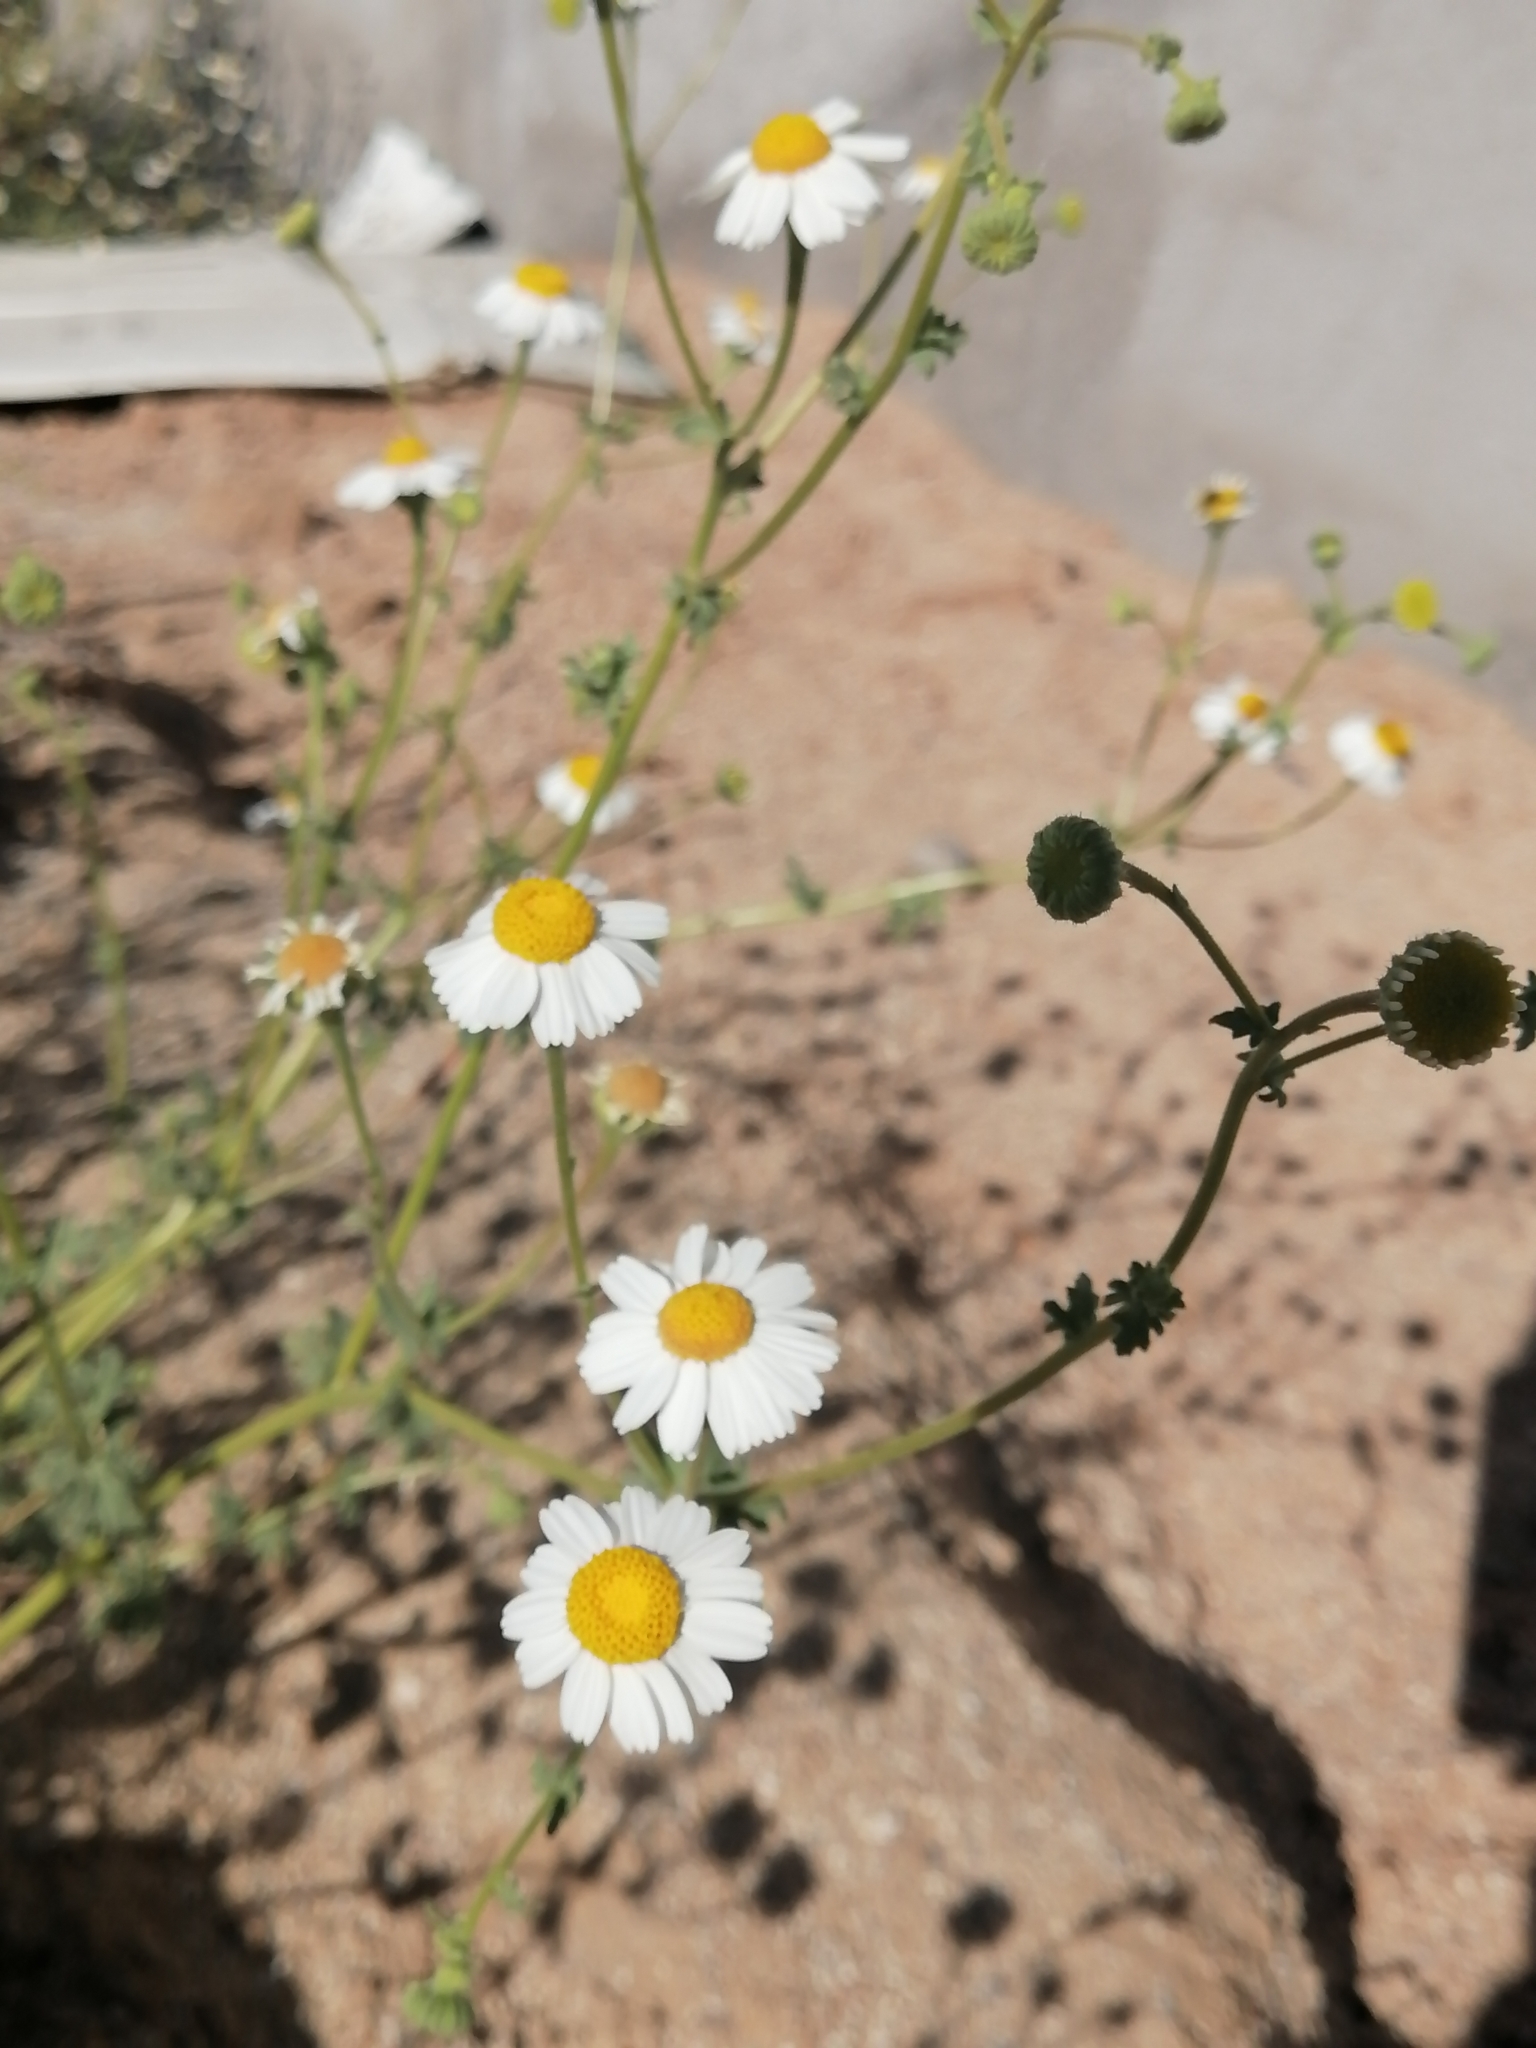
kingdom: Plantae
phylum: Tracheophyta
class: Magnoliopsida
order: Asterales
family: Asteraceae
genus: Perityle
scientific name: Perityle crassifolia
